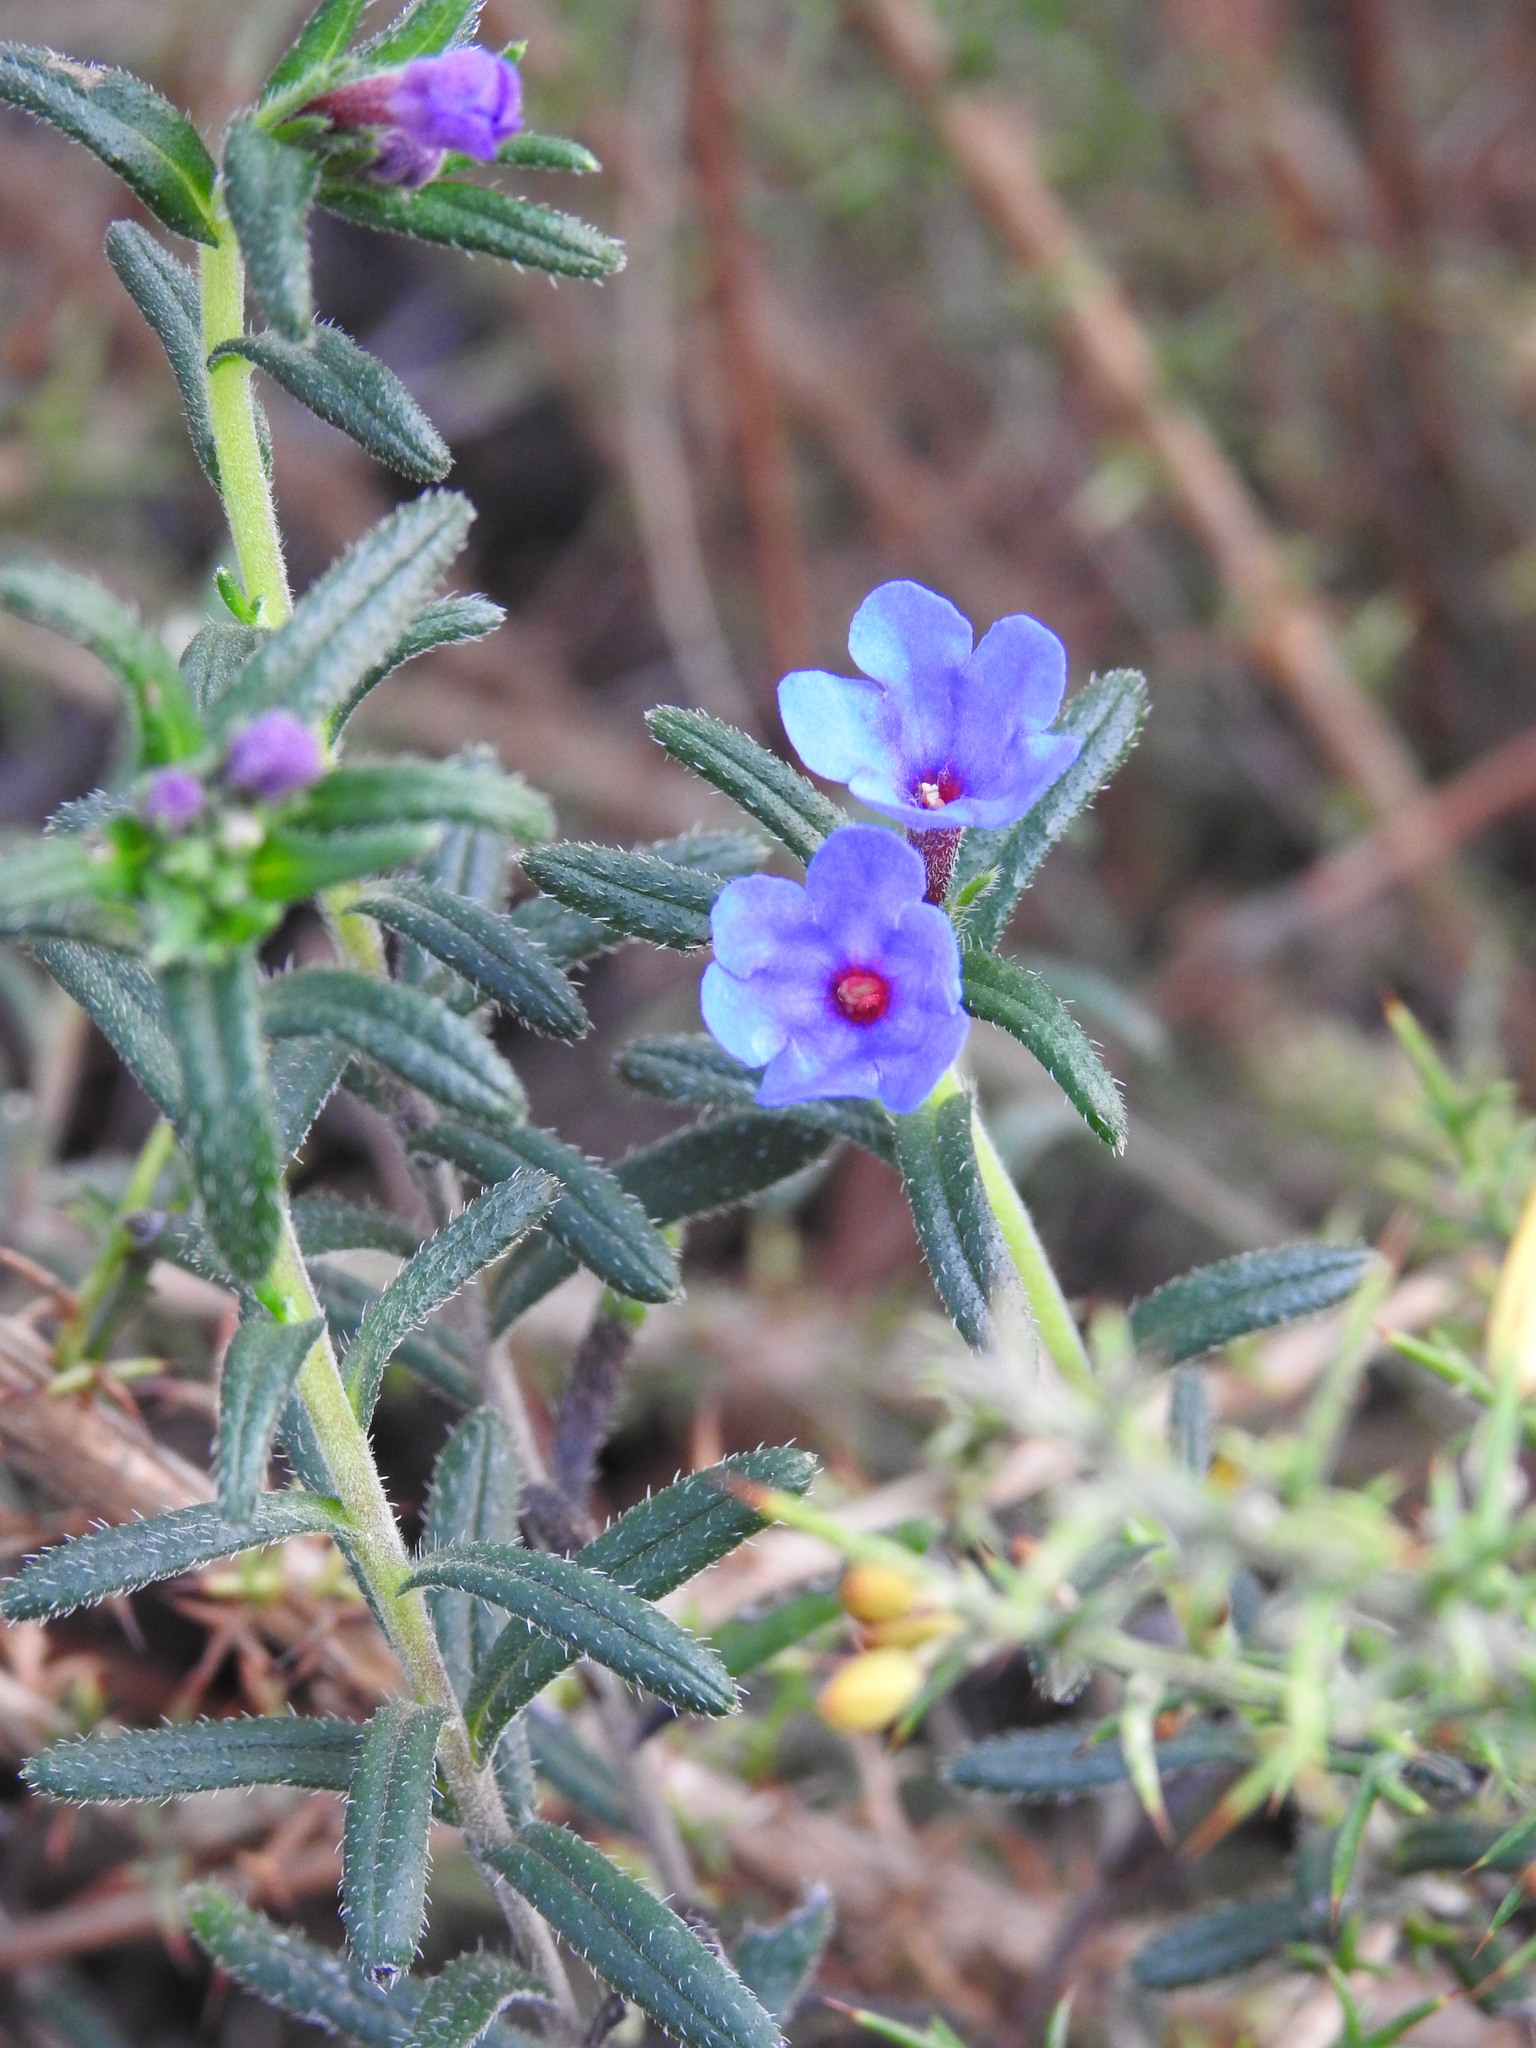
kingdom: Plantae
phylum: Tracheophyta
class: Magnoliopsida
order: Boraginales
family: Boraginaceae
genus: Glandora
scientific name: Glandora prostrata
